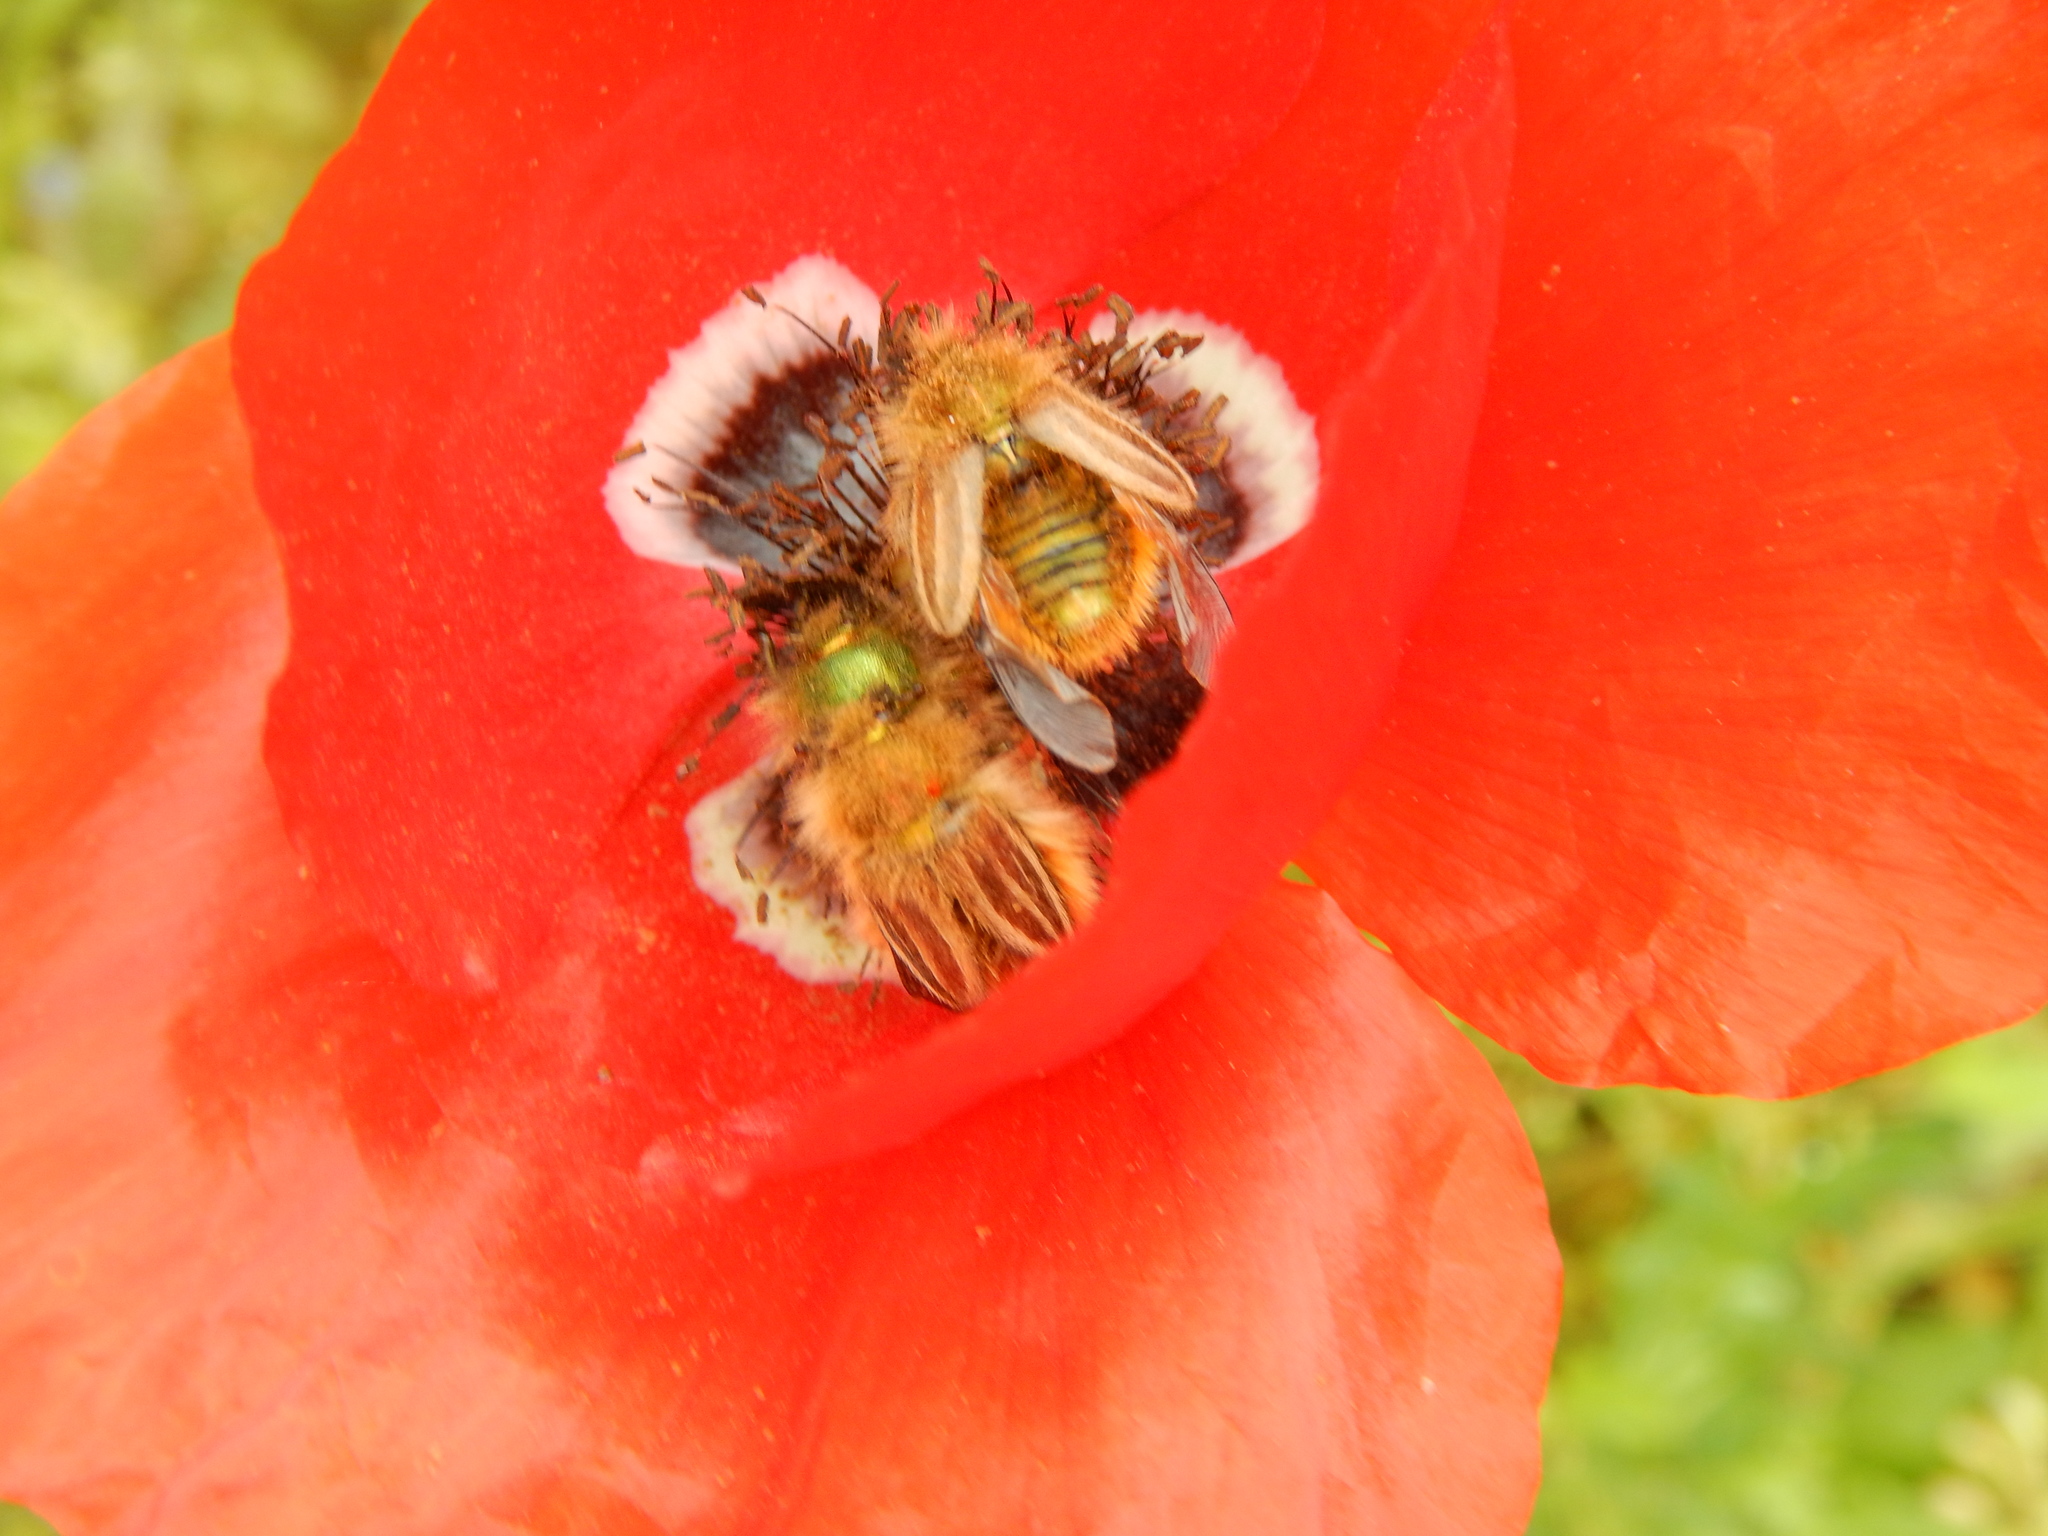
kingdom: Animalia
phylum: Arthropoda
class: Insecta
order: Coleoptera
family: Glaphyridae
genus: Eulasia
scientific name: Eulasia pareyssei
